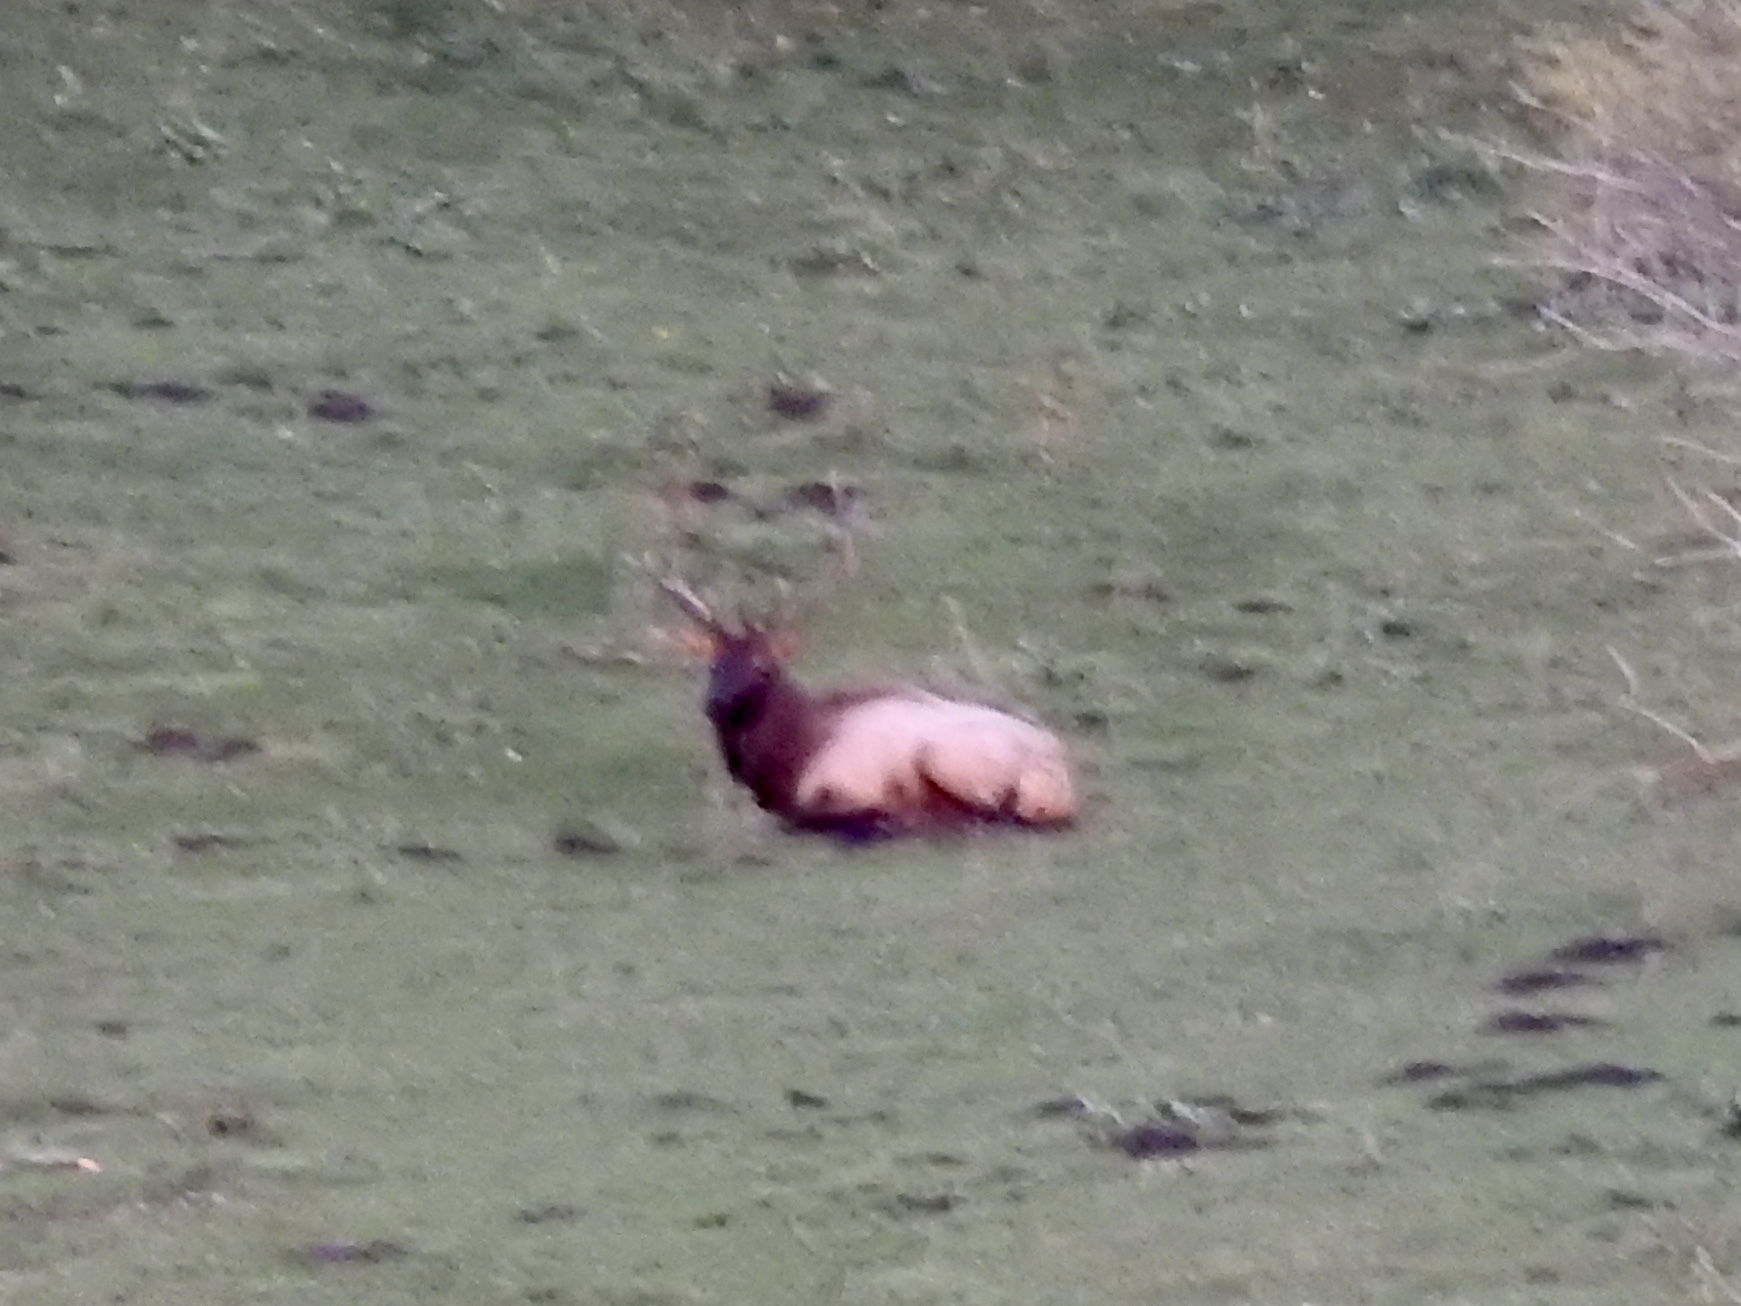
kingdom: Animalia
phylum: Chordata
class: Mammalia
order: Artiodactyla
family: Cervidae
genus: Cervus
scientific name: Cervus elaphus
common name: Red deer
